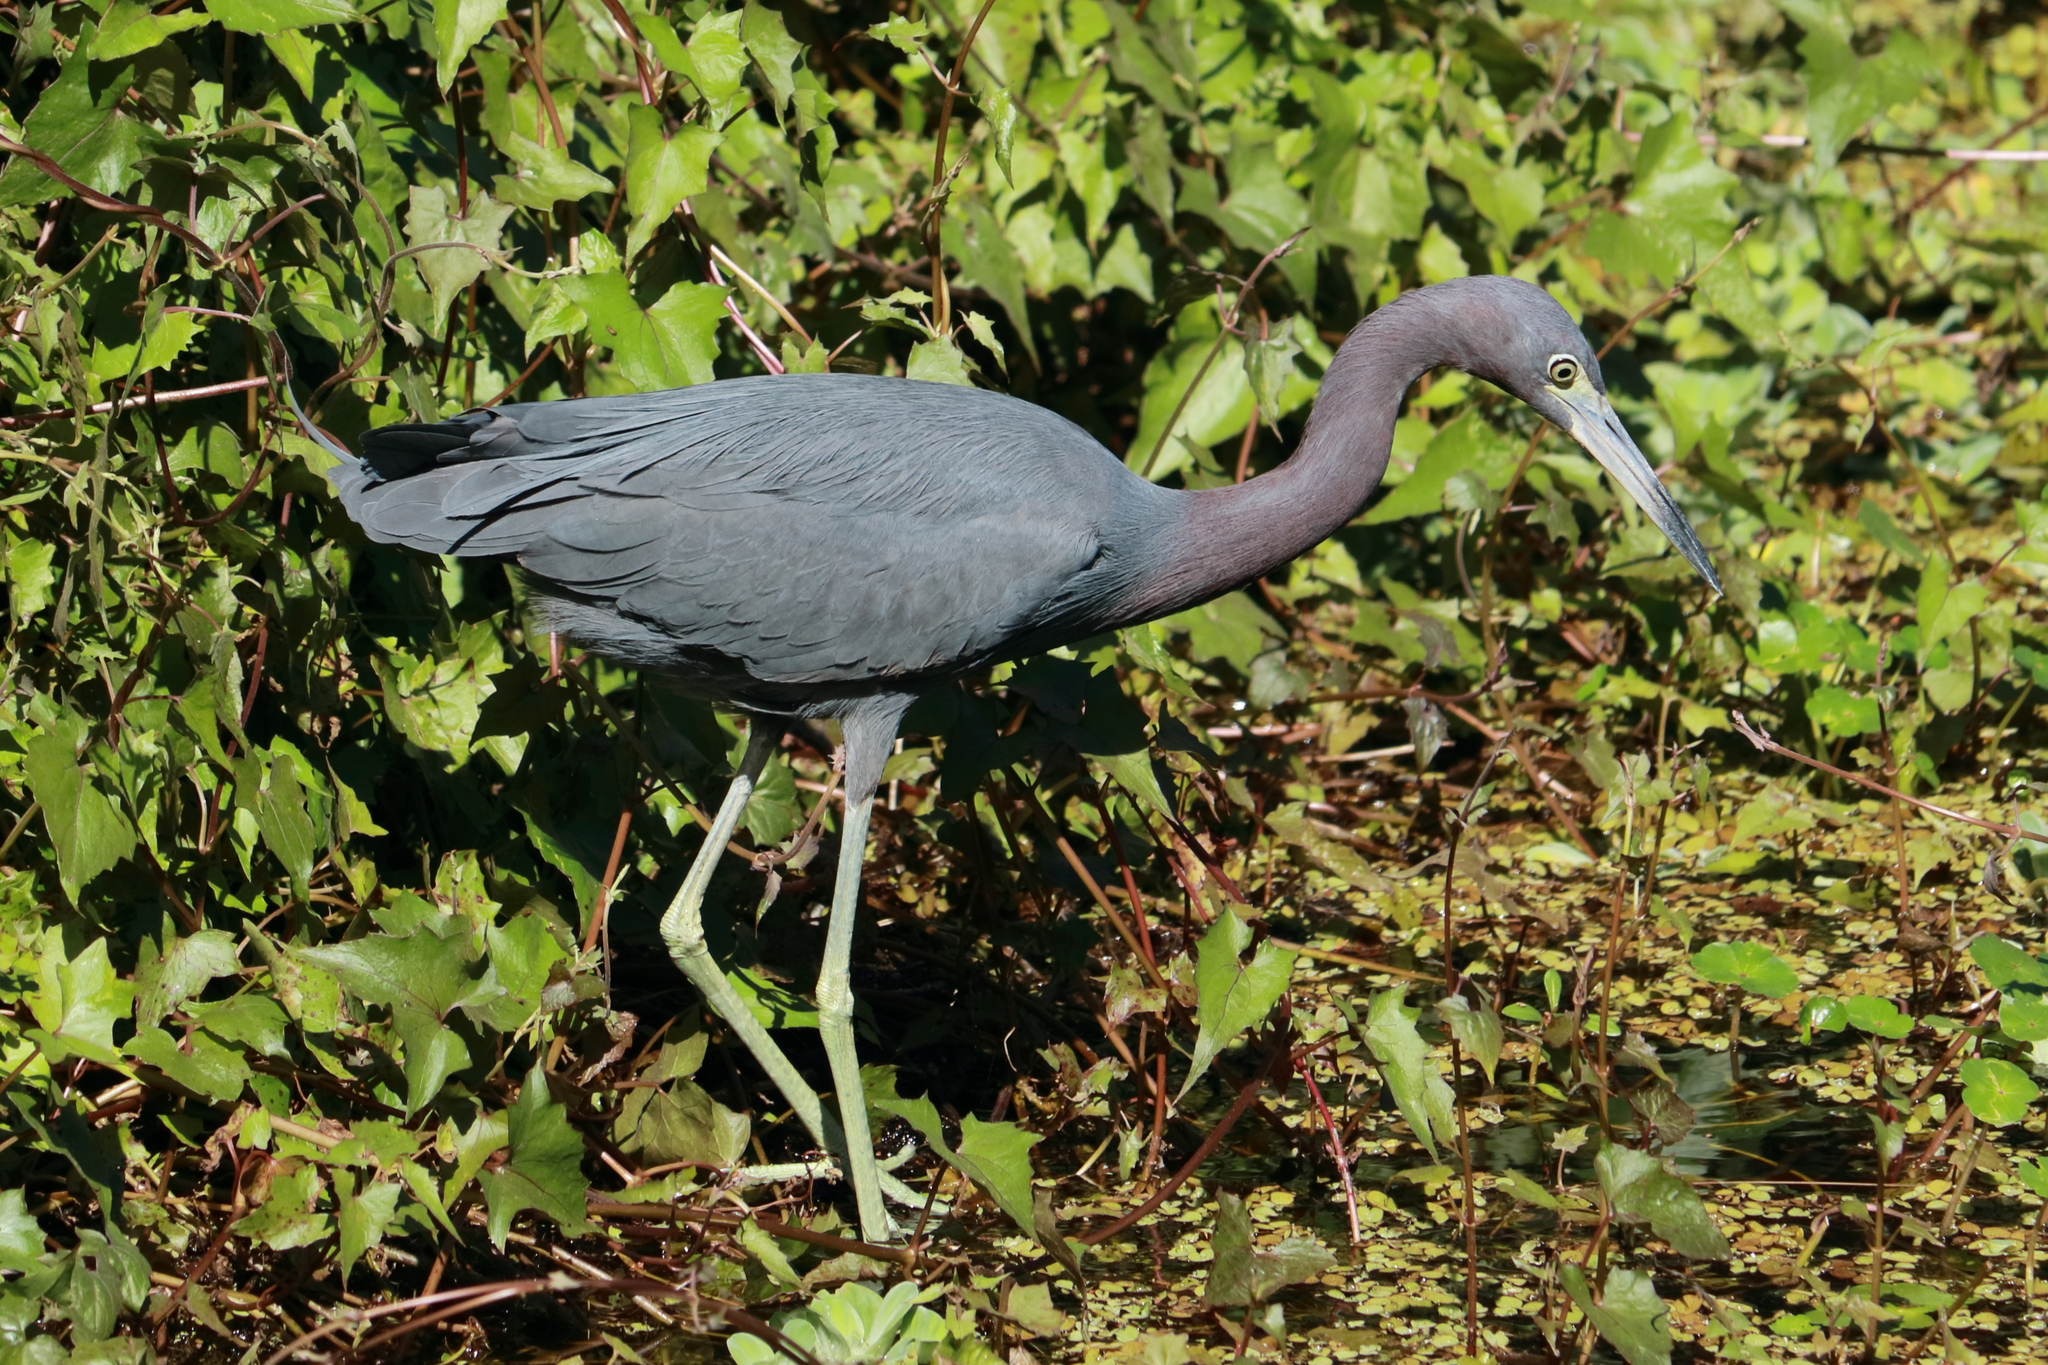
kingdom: Animalia
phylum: Chordata
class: Aves
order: Pelecaniformes
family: Ardeidae
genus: Egretta
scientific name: Egretta caerulea
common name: Little blue heron
